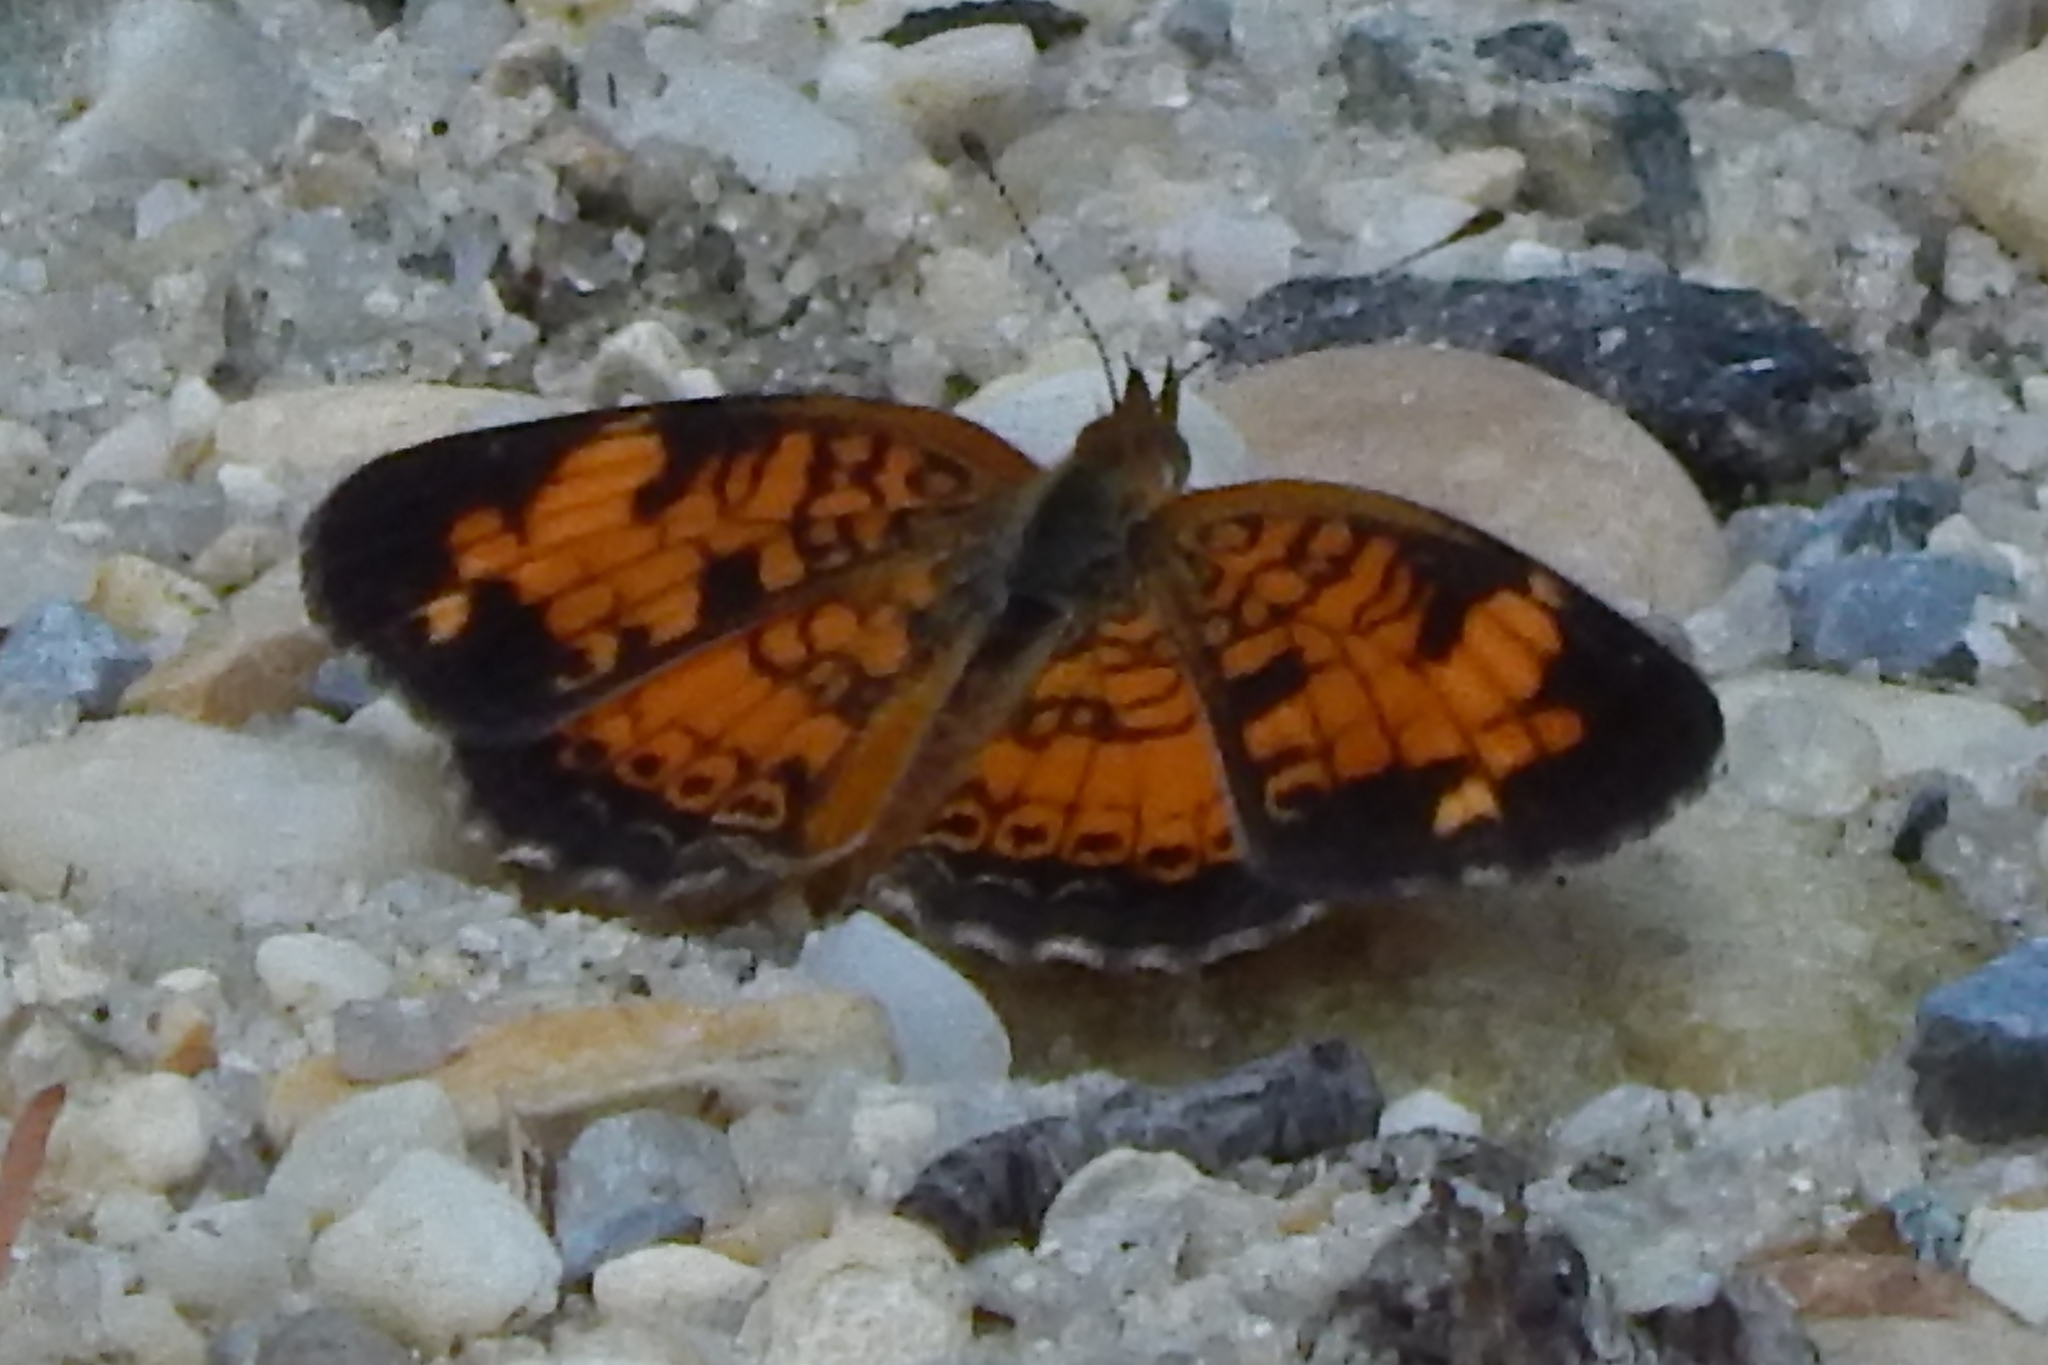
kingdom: Animalia
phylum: Arthropoda
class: Insecta
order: Lepidoptera
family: Nymphalidae
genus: Phyciodes
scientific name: Phyciodes tharos
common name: Pearl crescent
